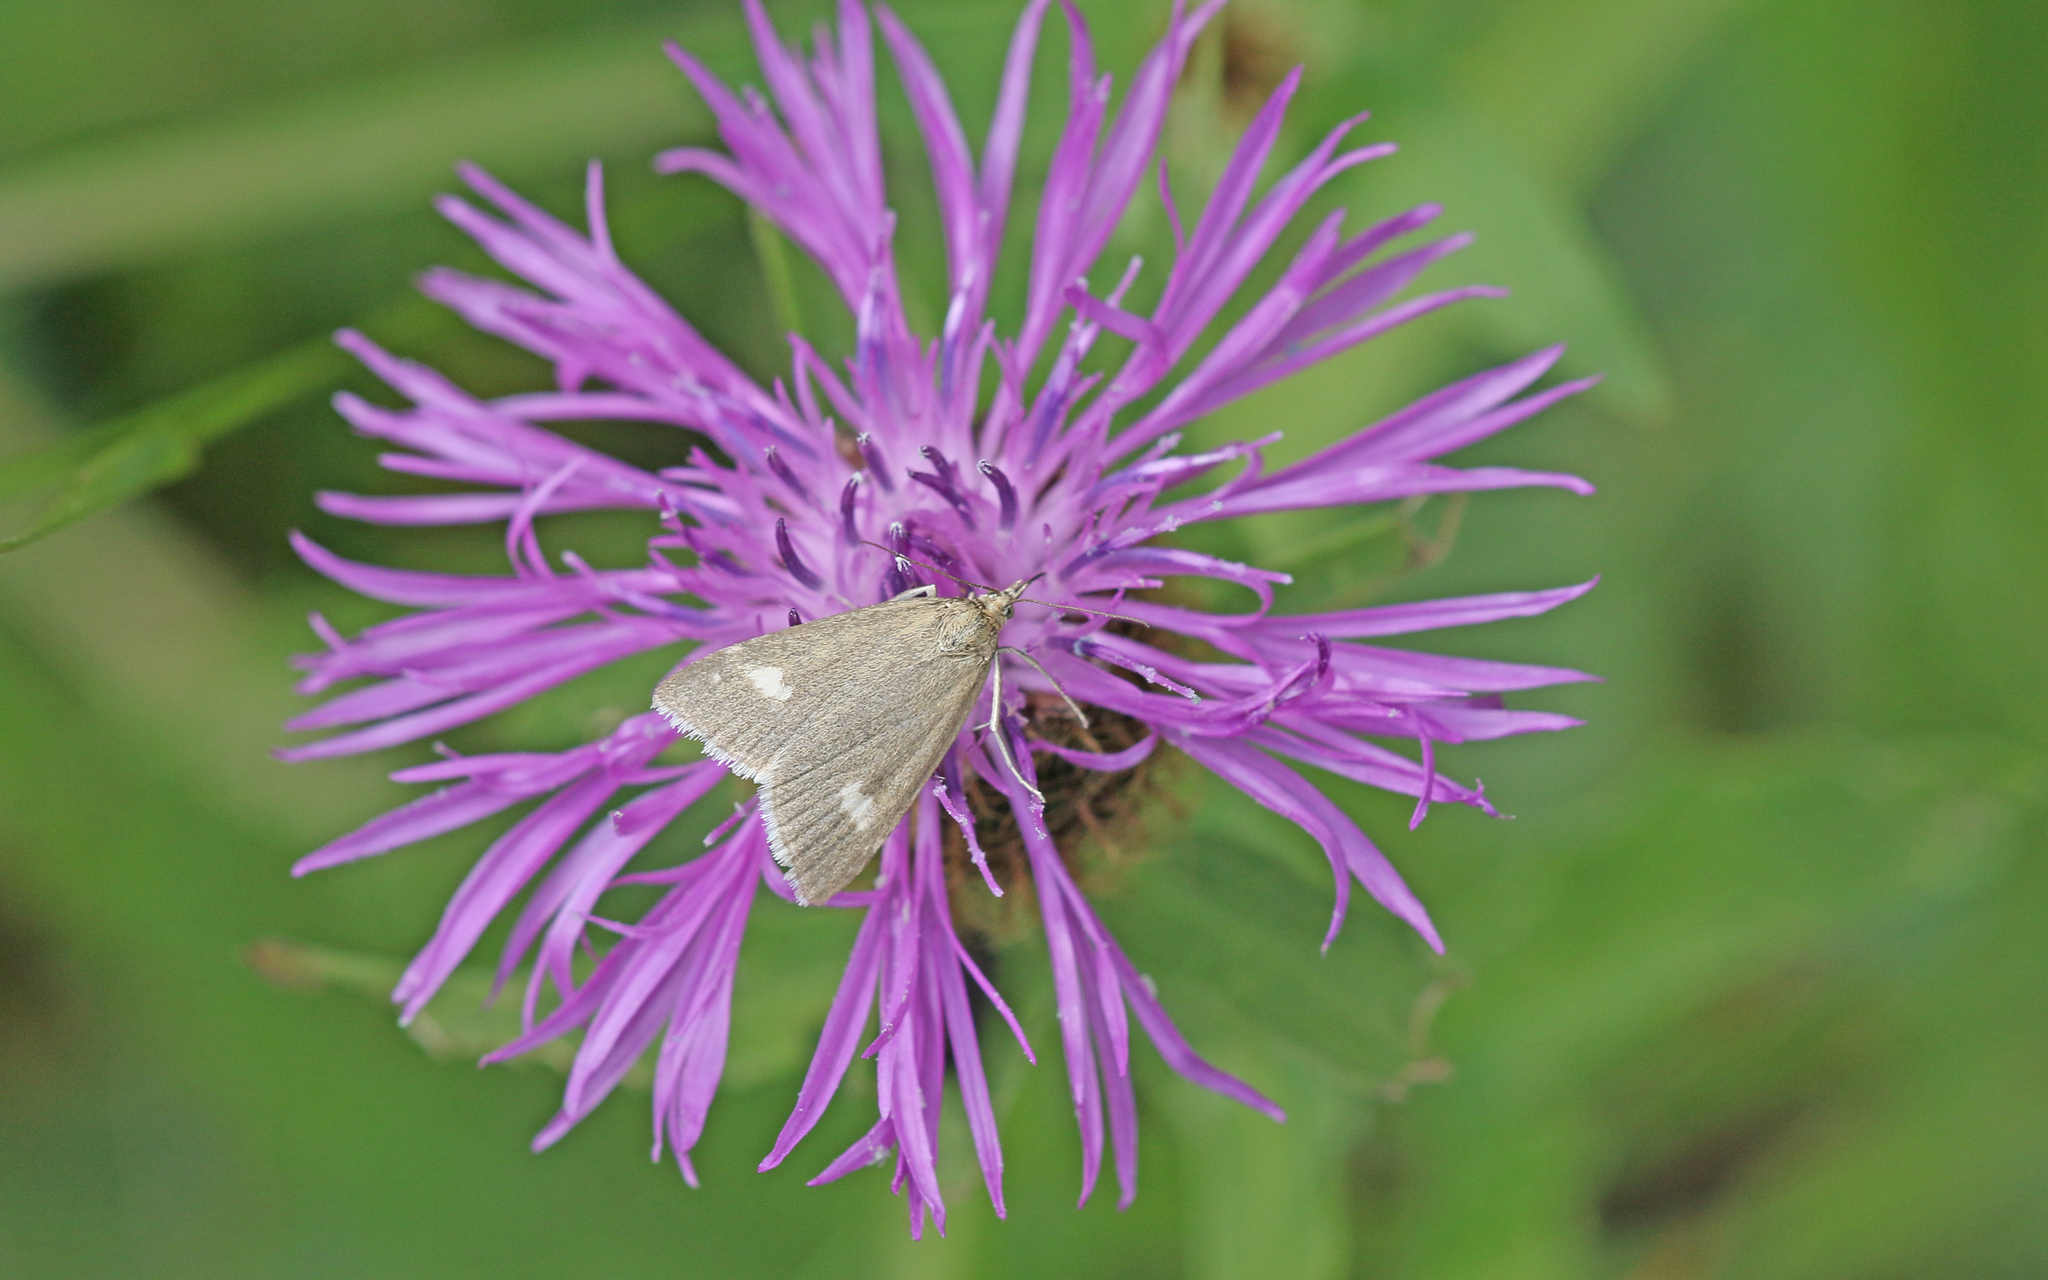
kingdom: Animalia
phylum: Arthropoda
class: Insecta
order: Lepidoptera
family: Crambidae
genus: Pyrausta
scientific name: Pyrausta alpinalis
